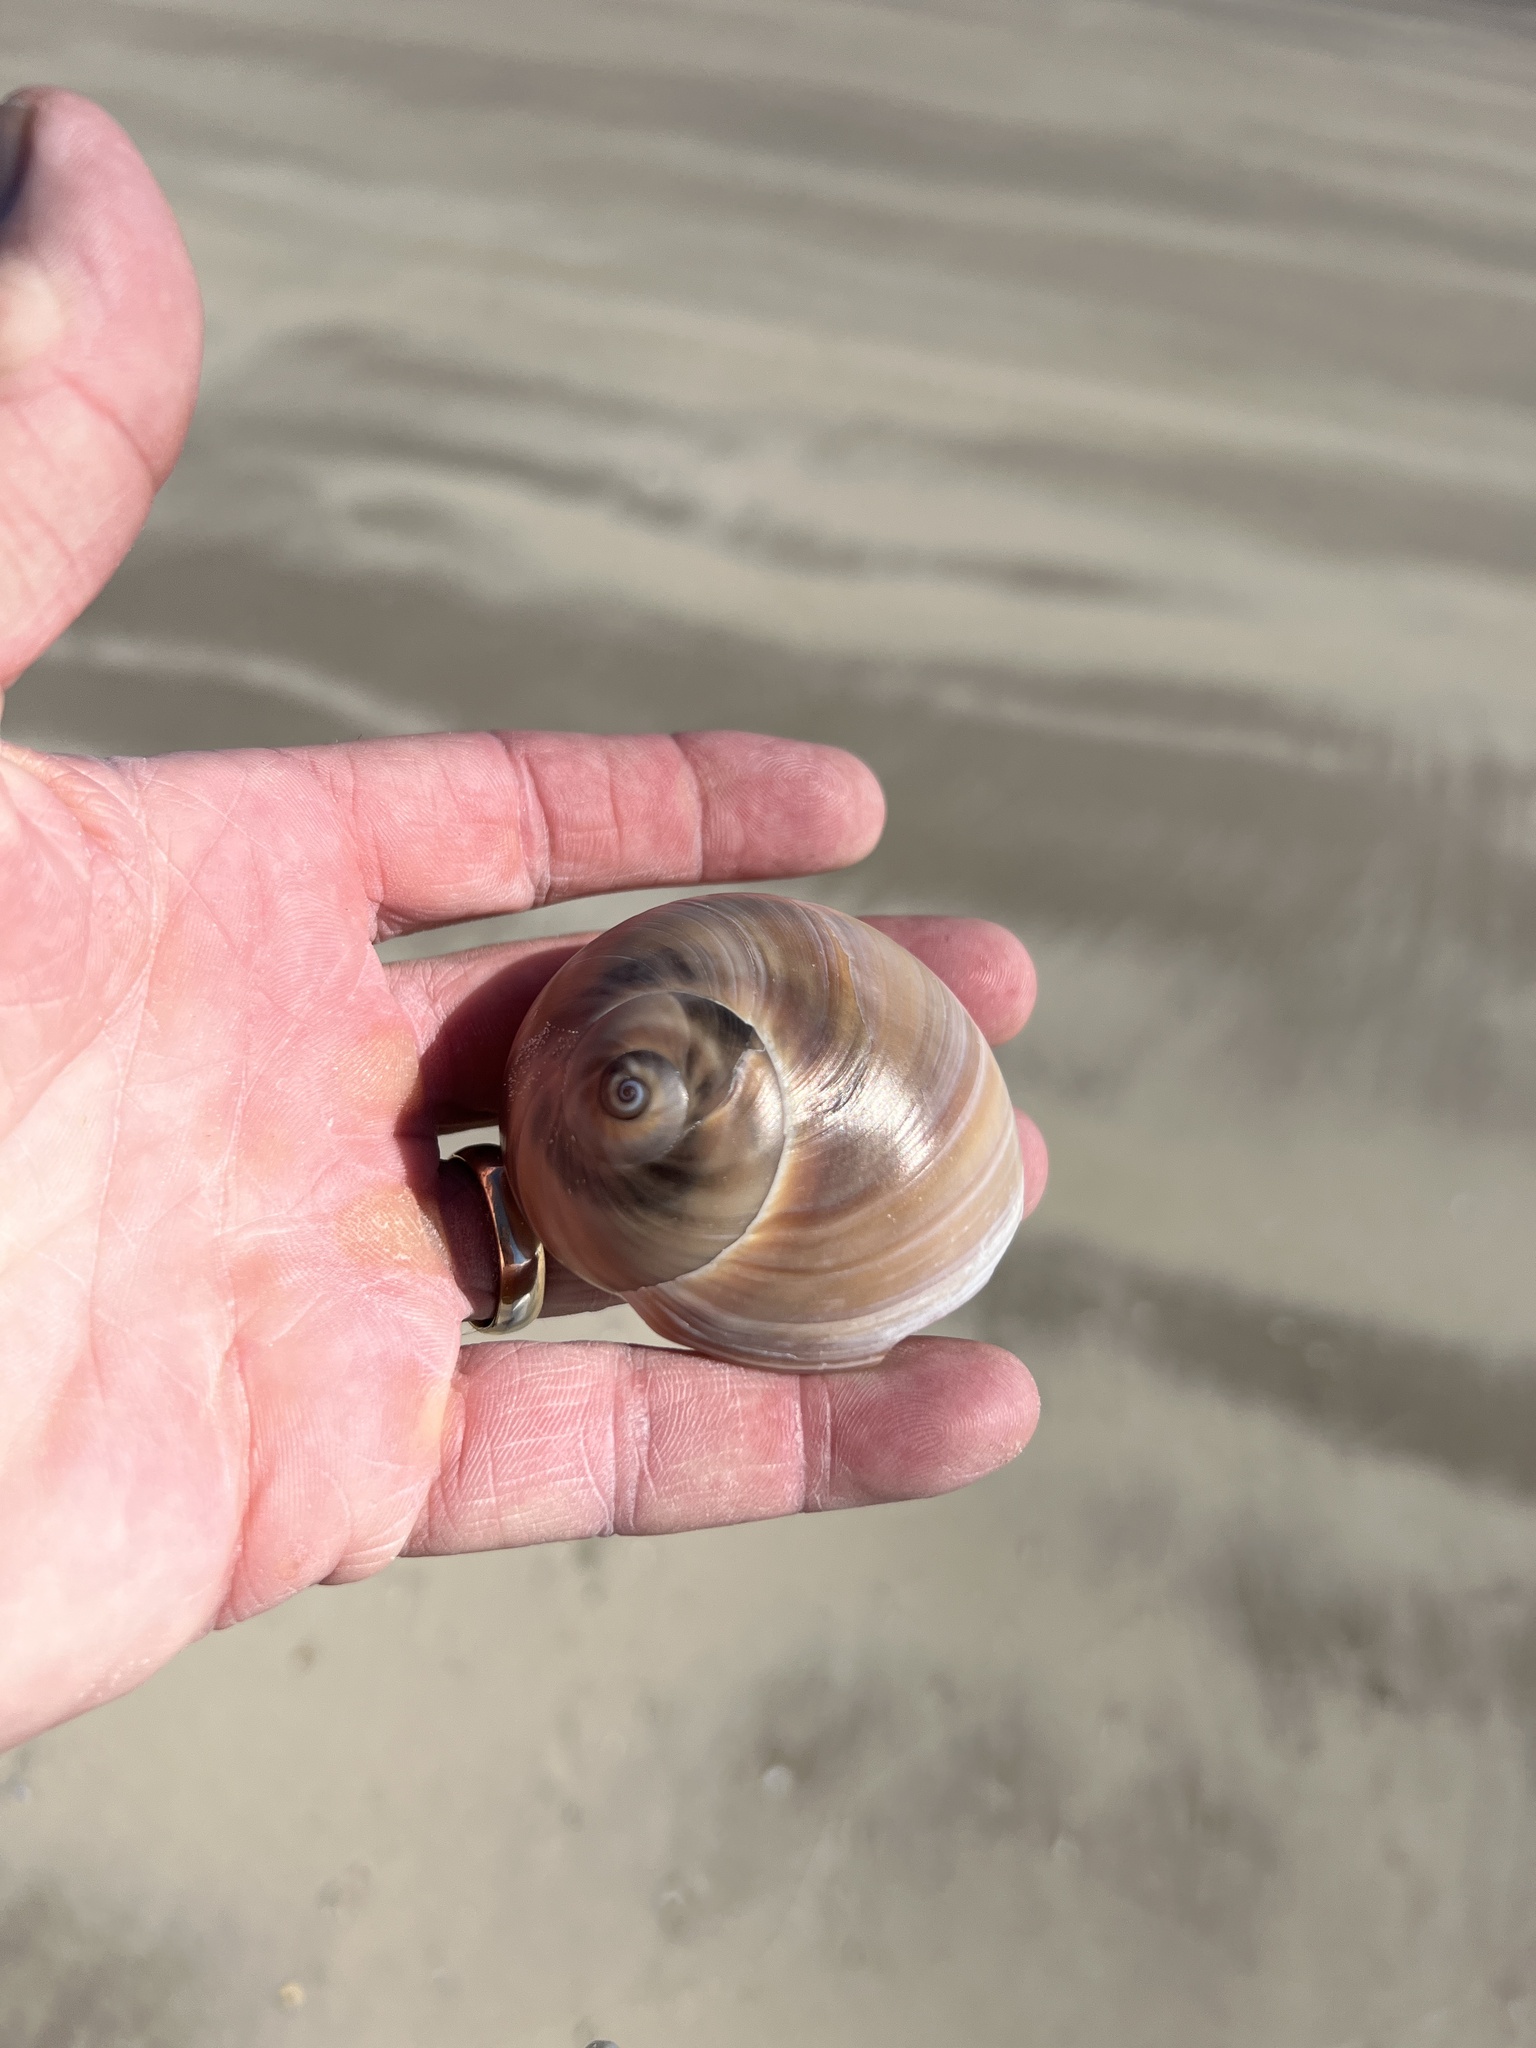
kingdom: Animalia
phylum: Mollusca
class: Gastropoda
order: Littorinimorpha
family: Naticidae
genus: Neverita
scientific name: Neverita duplicata
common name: Lobed moonsnail
